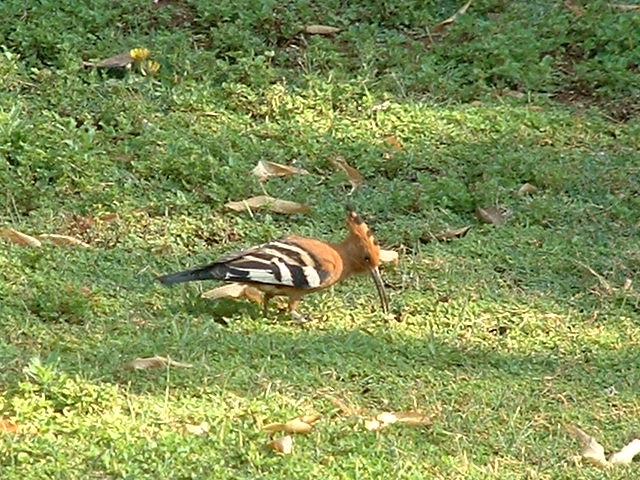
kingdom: Animalia
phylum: Chordata
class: Aves
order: Bucerotiformes
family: Upupidae
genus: Upupa
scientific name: Upupa africana
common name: African hoopoe
